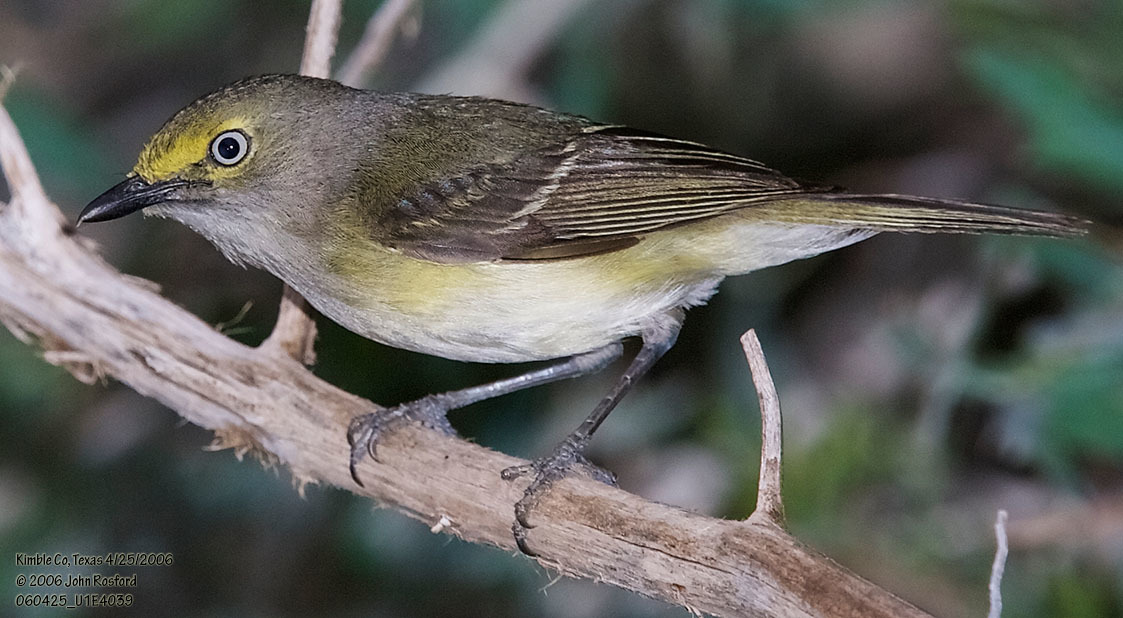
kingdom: Animalia
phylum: Chordata
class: Aves
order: Passeriformes
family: Vireonidae
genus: Vireo
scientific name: Vireo griseus
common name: White-eyed vireo
